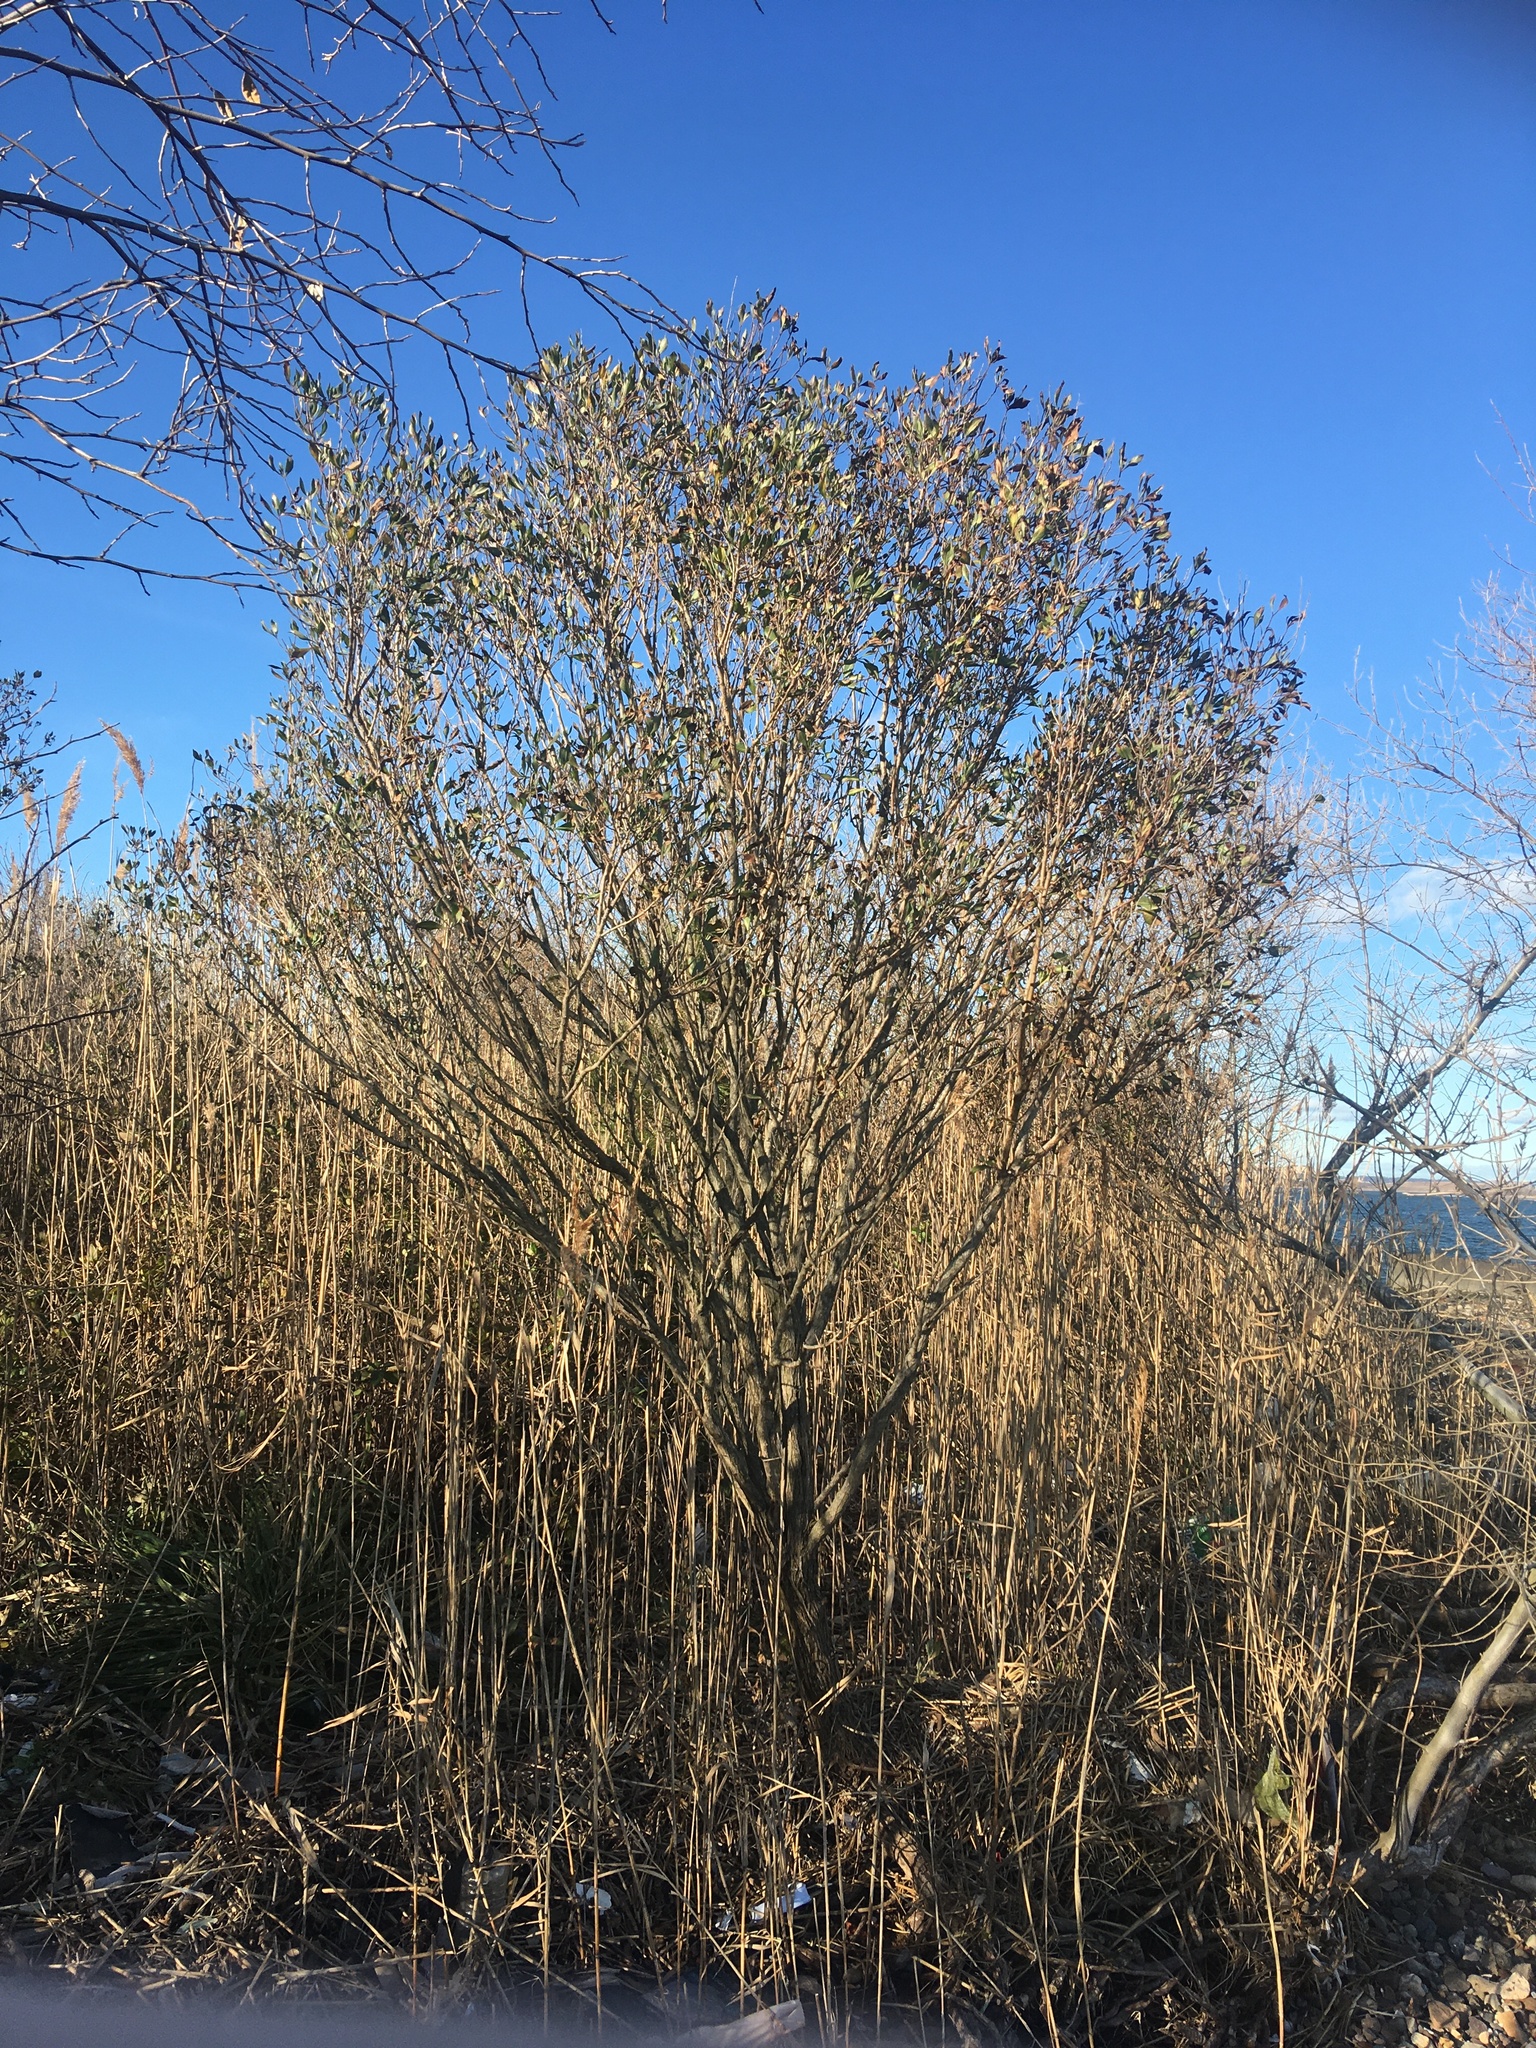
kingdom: Plantae
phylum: Tracheophyta
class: Magnoliopsida
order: Asterales
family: Asteraceae
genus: Baccharis
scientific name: Baccharis halimifolia
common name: Eastern baccharis
